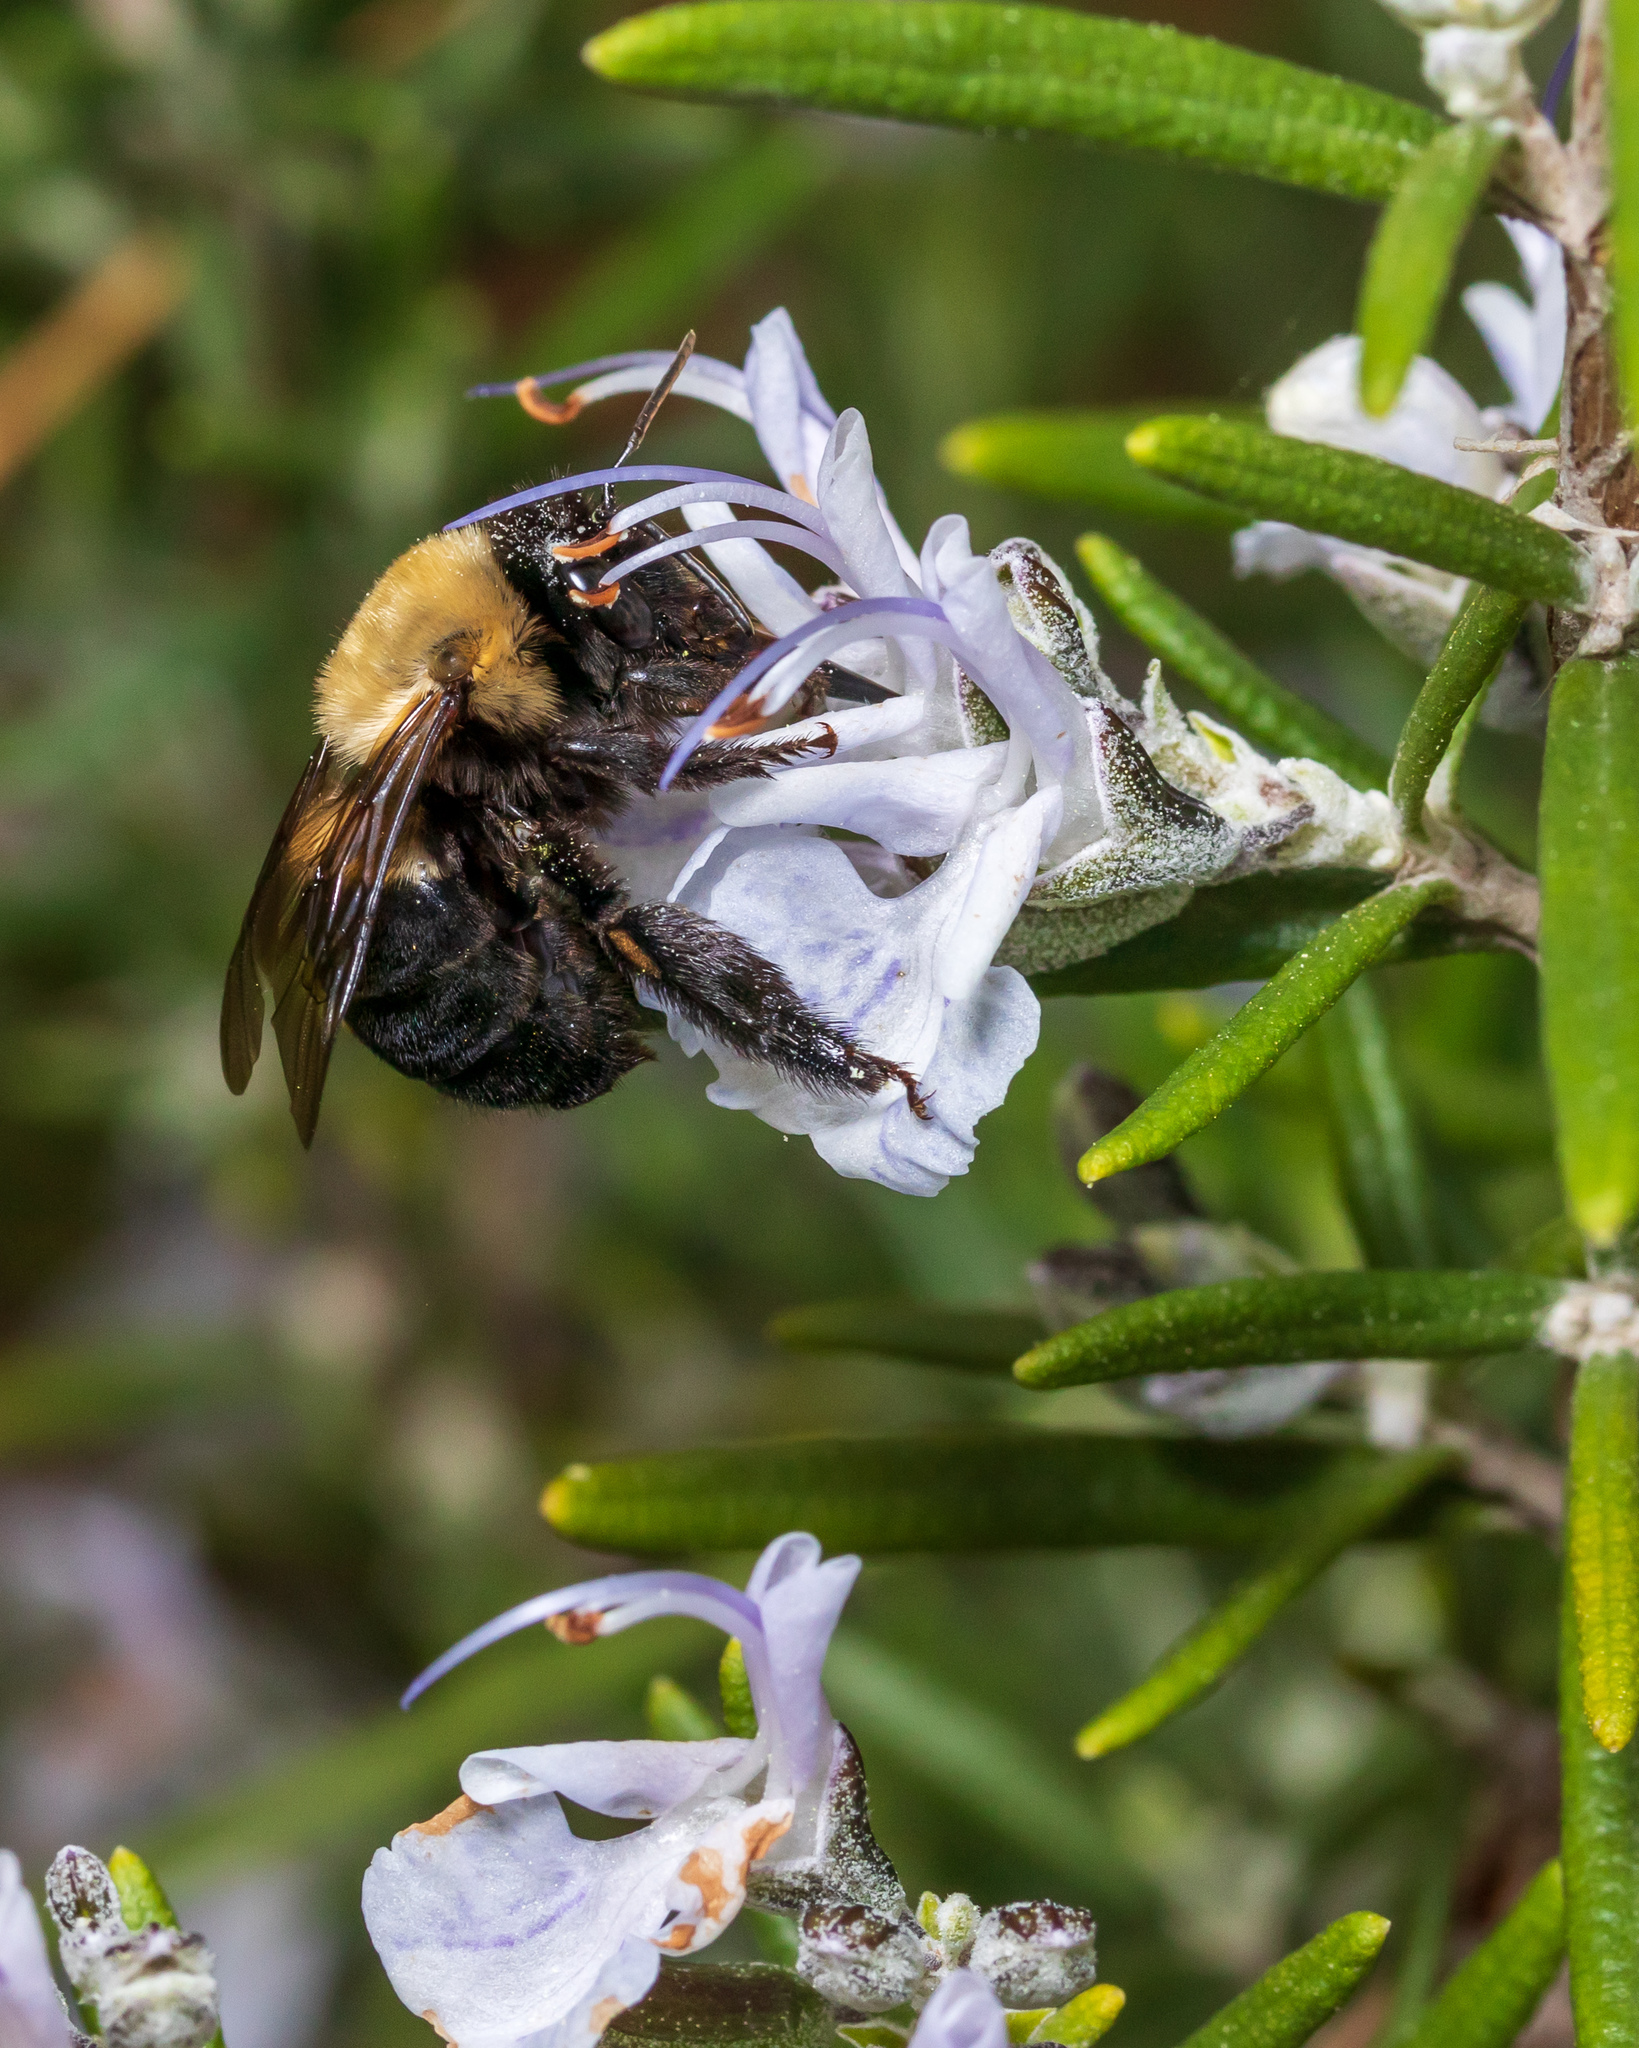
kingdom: Animalia
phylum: Arthropoda
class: Insecta
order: Hymenoptera
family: Apidae
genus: Habropoda
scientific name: Habropoda laboriosa
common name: Southeastern blueberry bee
